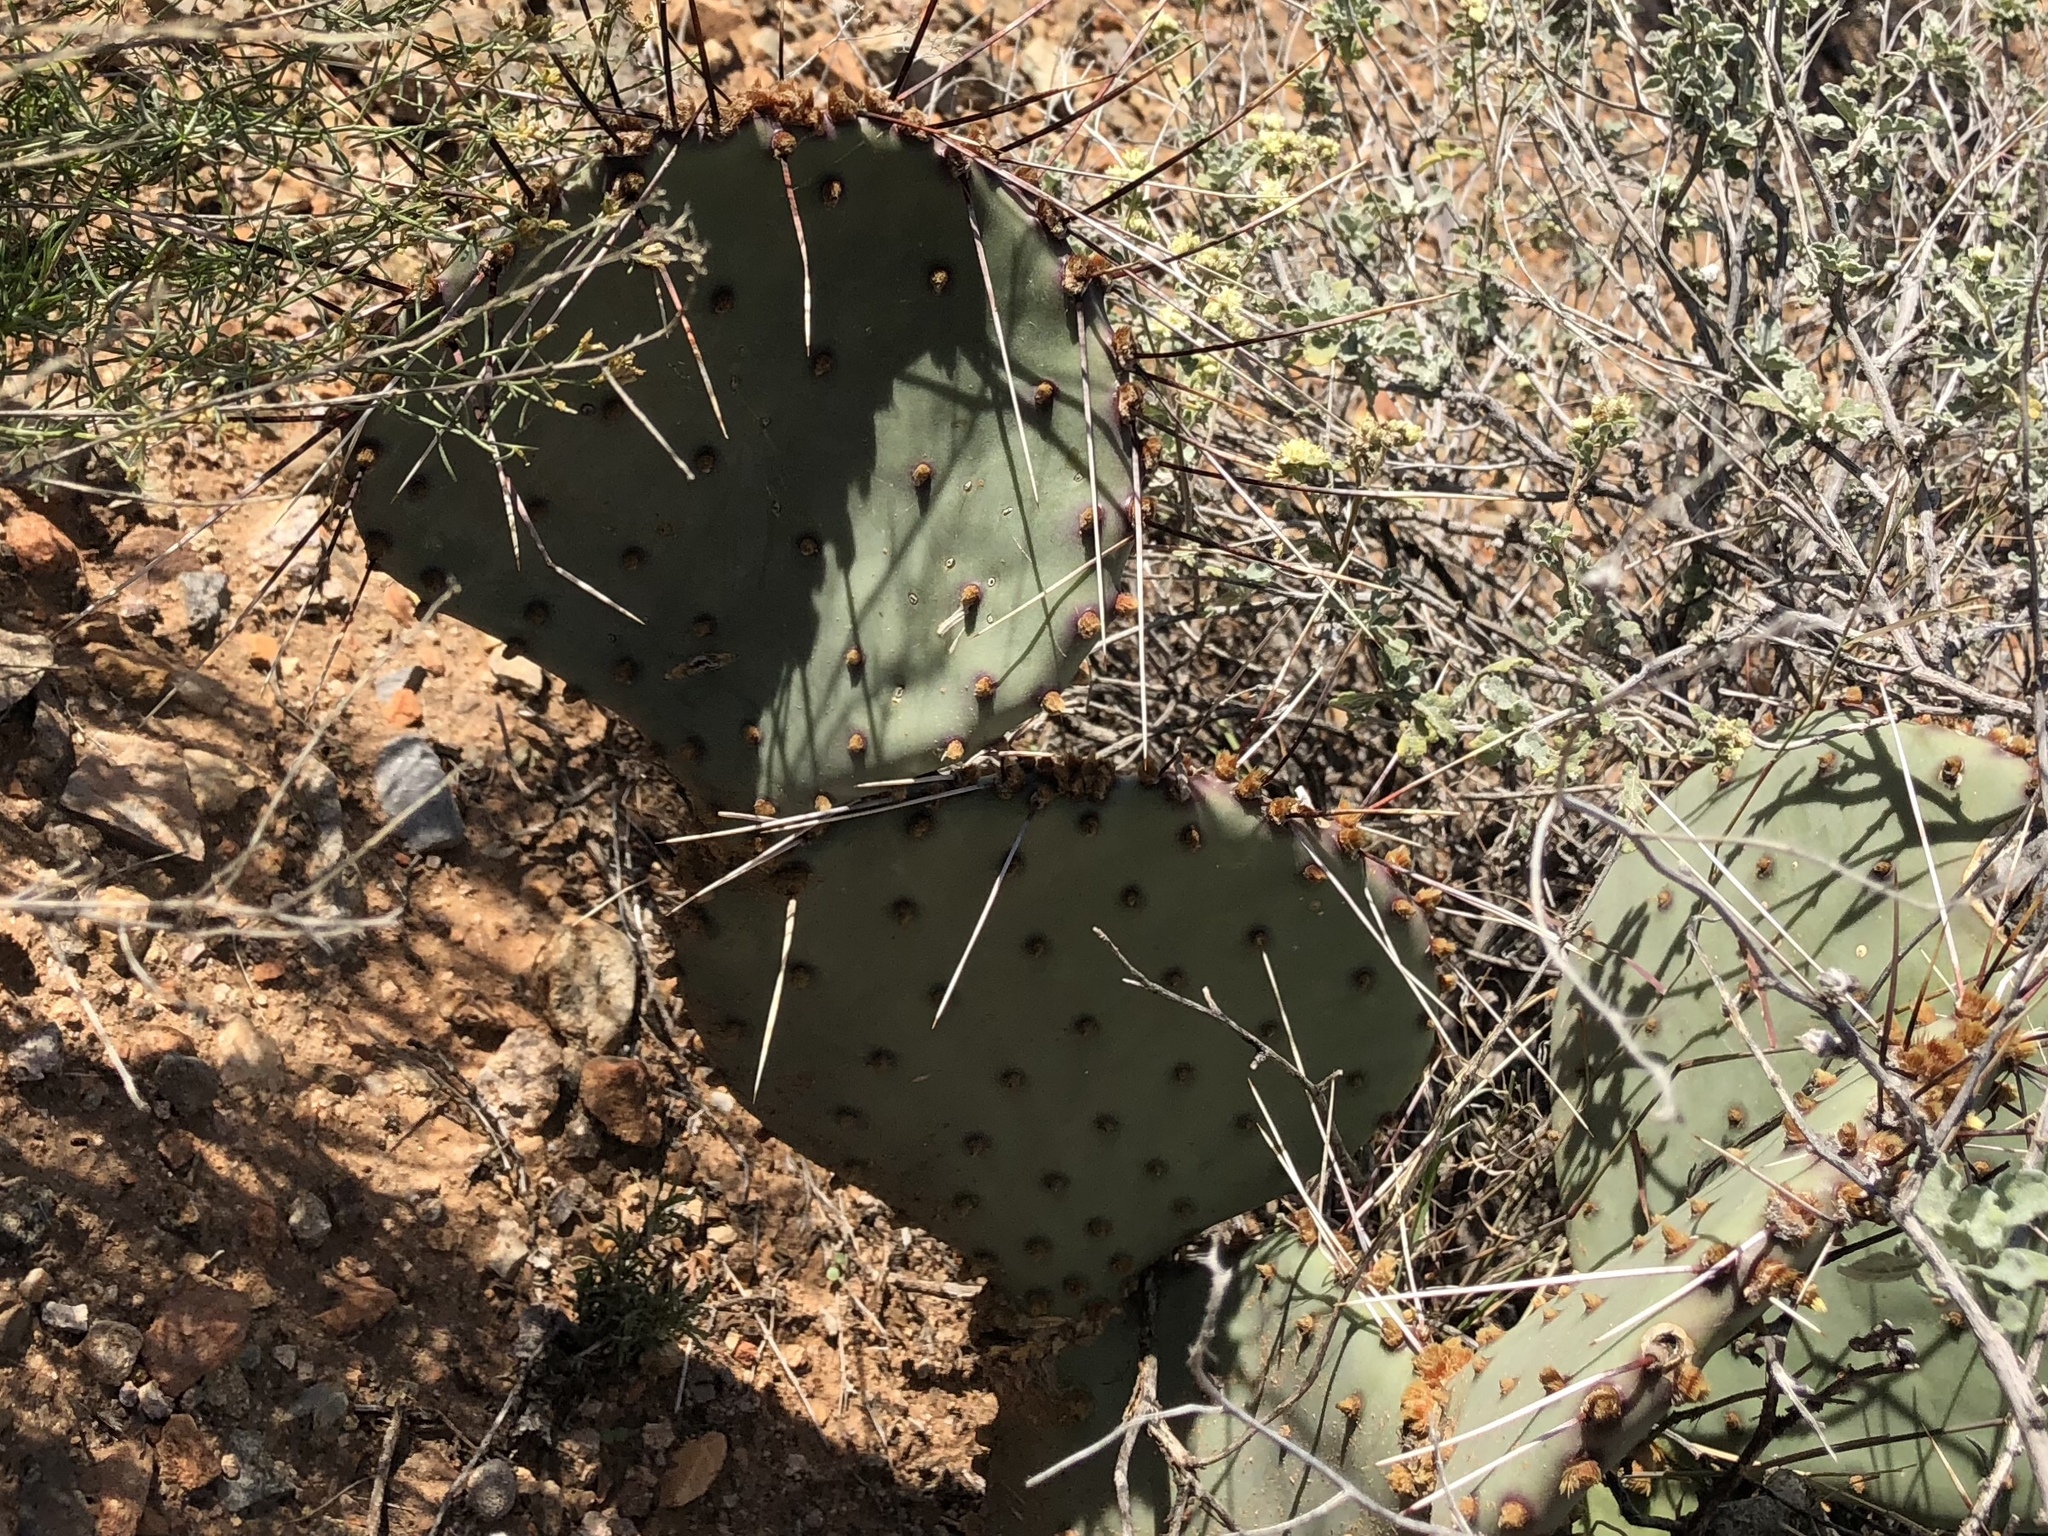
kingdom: Plantae
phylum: Tracheophyta
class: Magnoliopsida
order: Caryophyllales
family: Cactaceae
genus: Opuntia
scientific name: Opuntia macrocentra
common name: Purple prickly-pear
